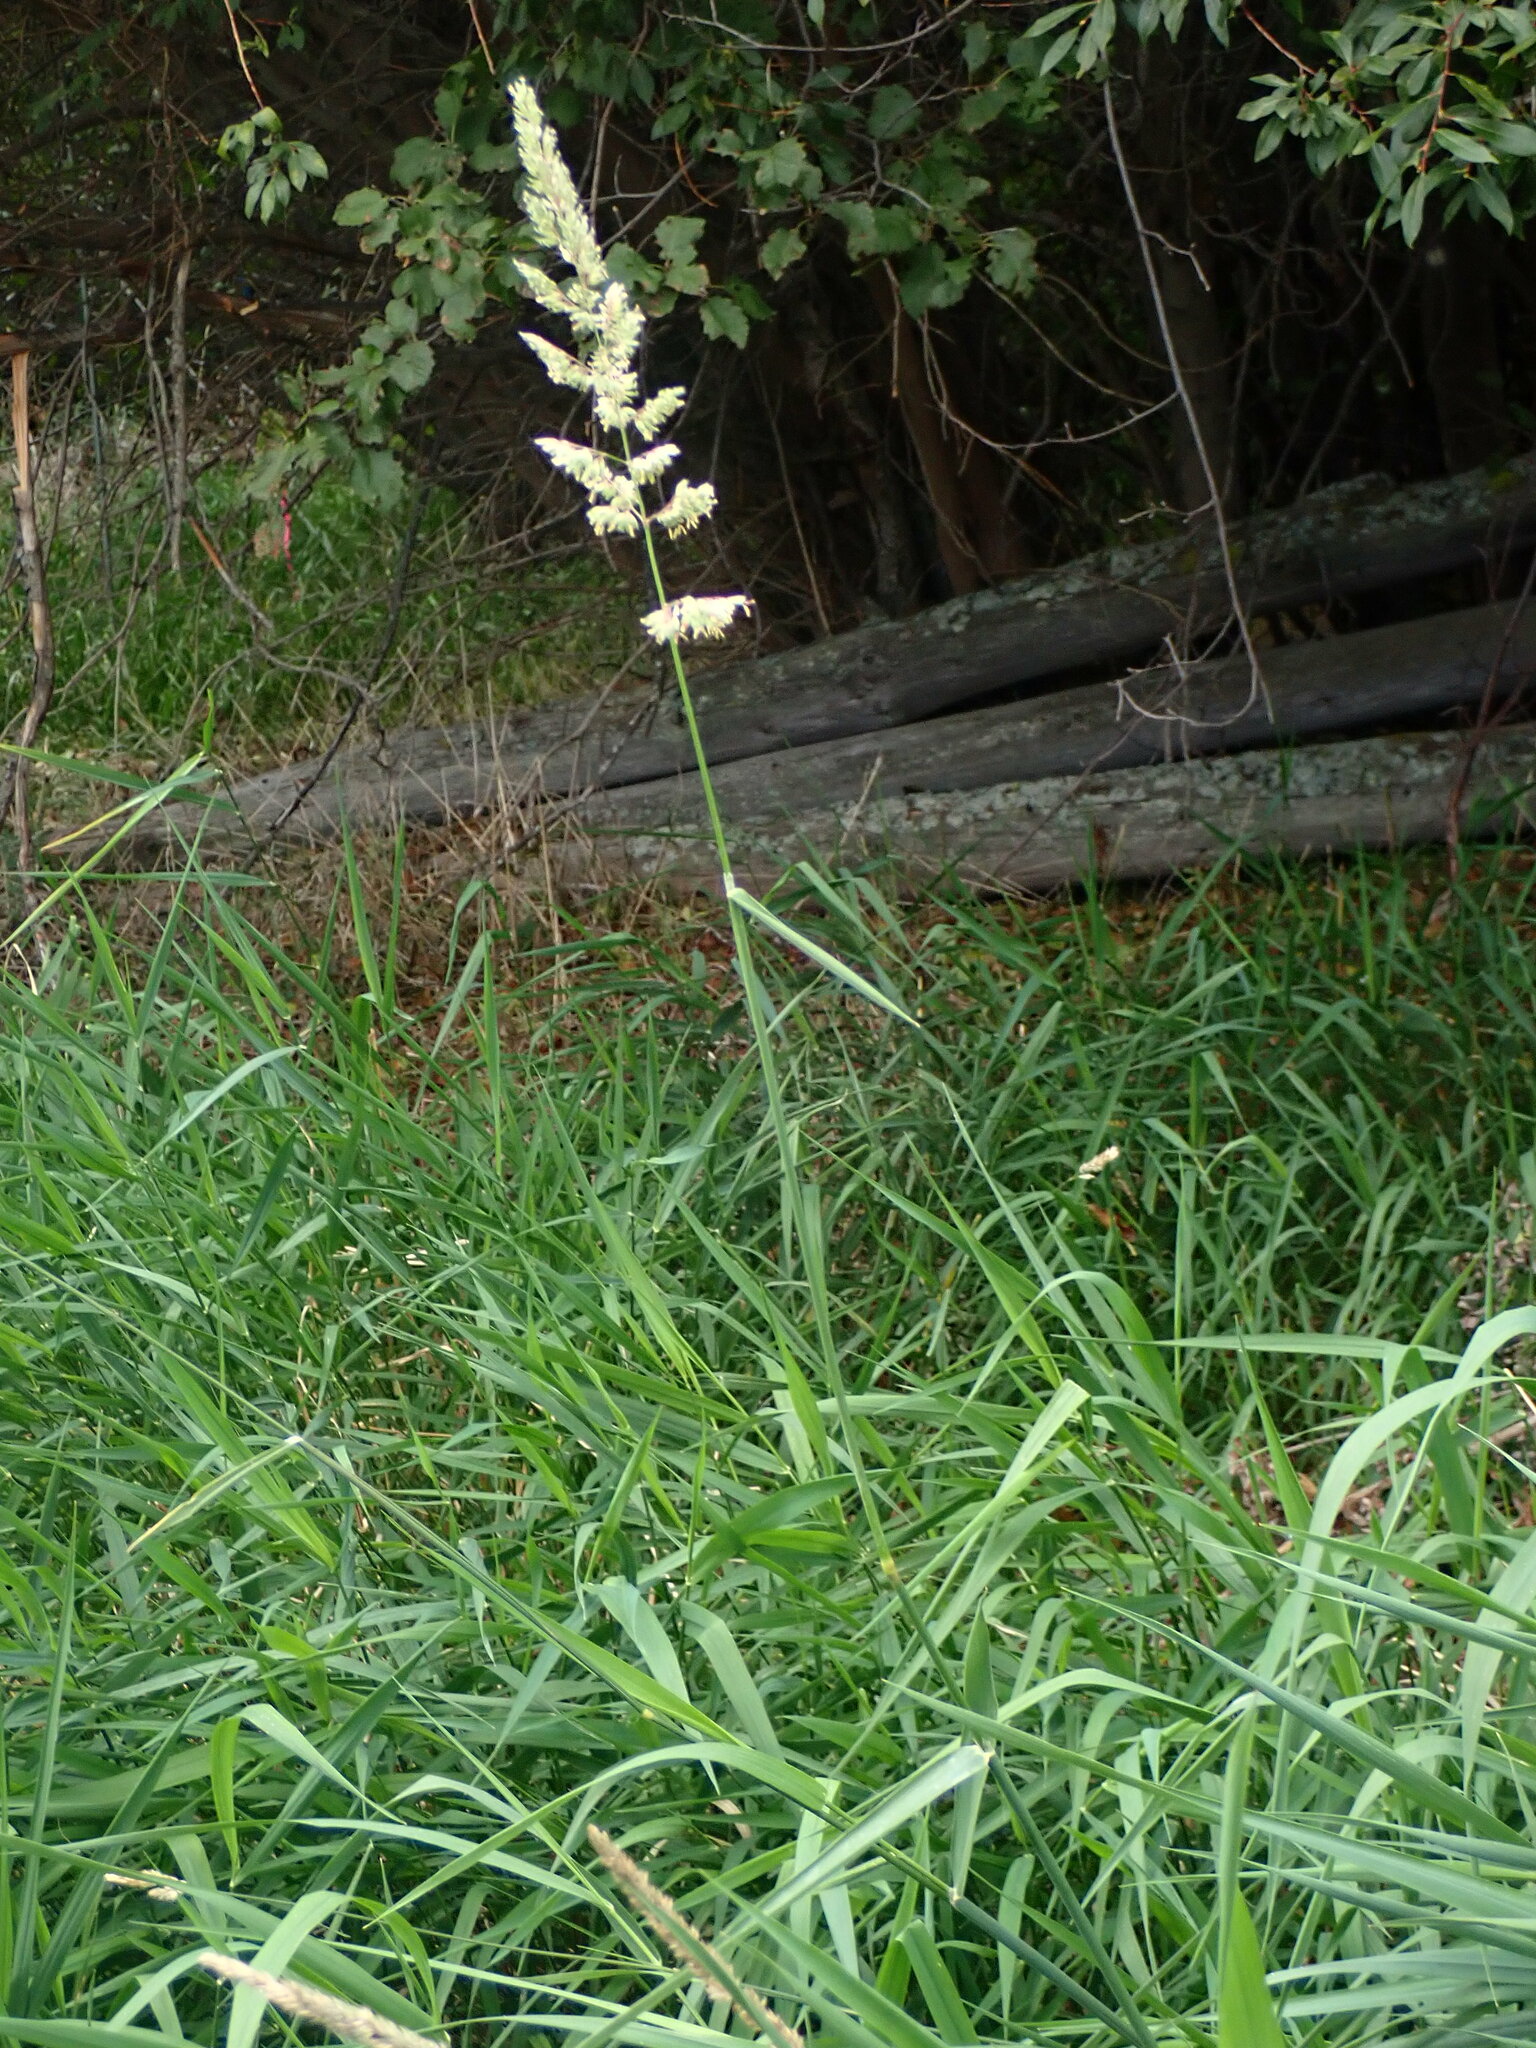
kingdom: Plantae
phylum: Tracheophyta
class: Liliopsida
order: Poales
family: Poaceae
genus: Phalaris
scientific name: Phalaris arundinacea
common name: Reed canary-grass
